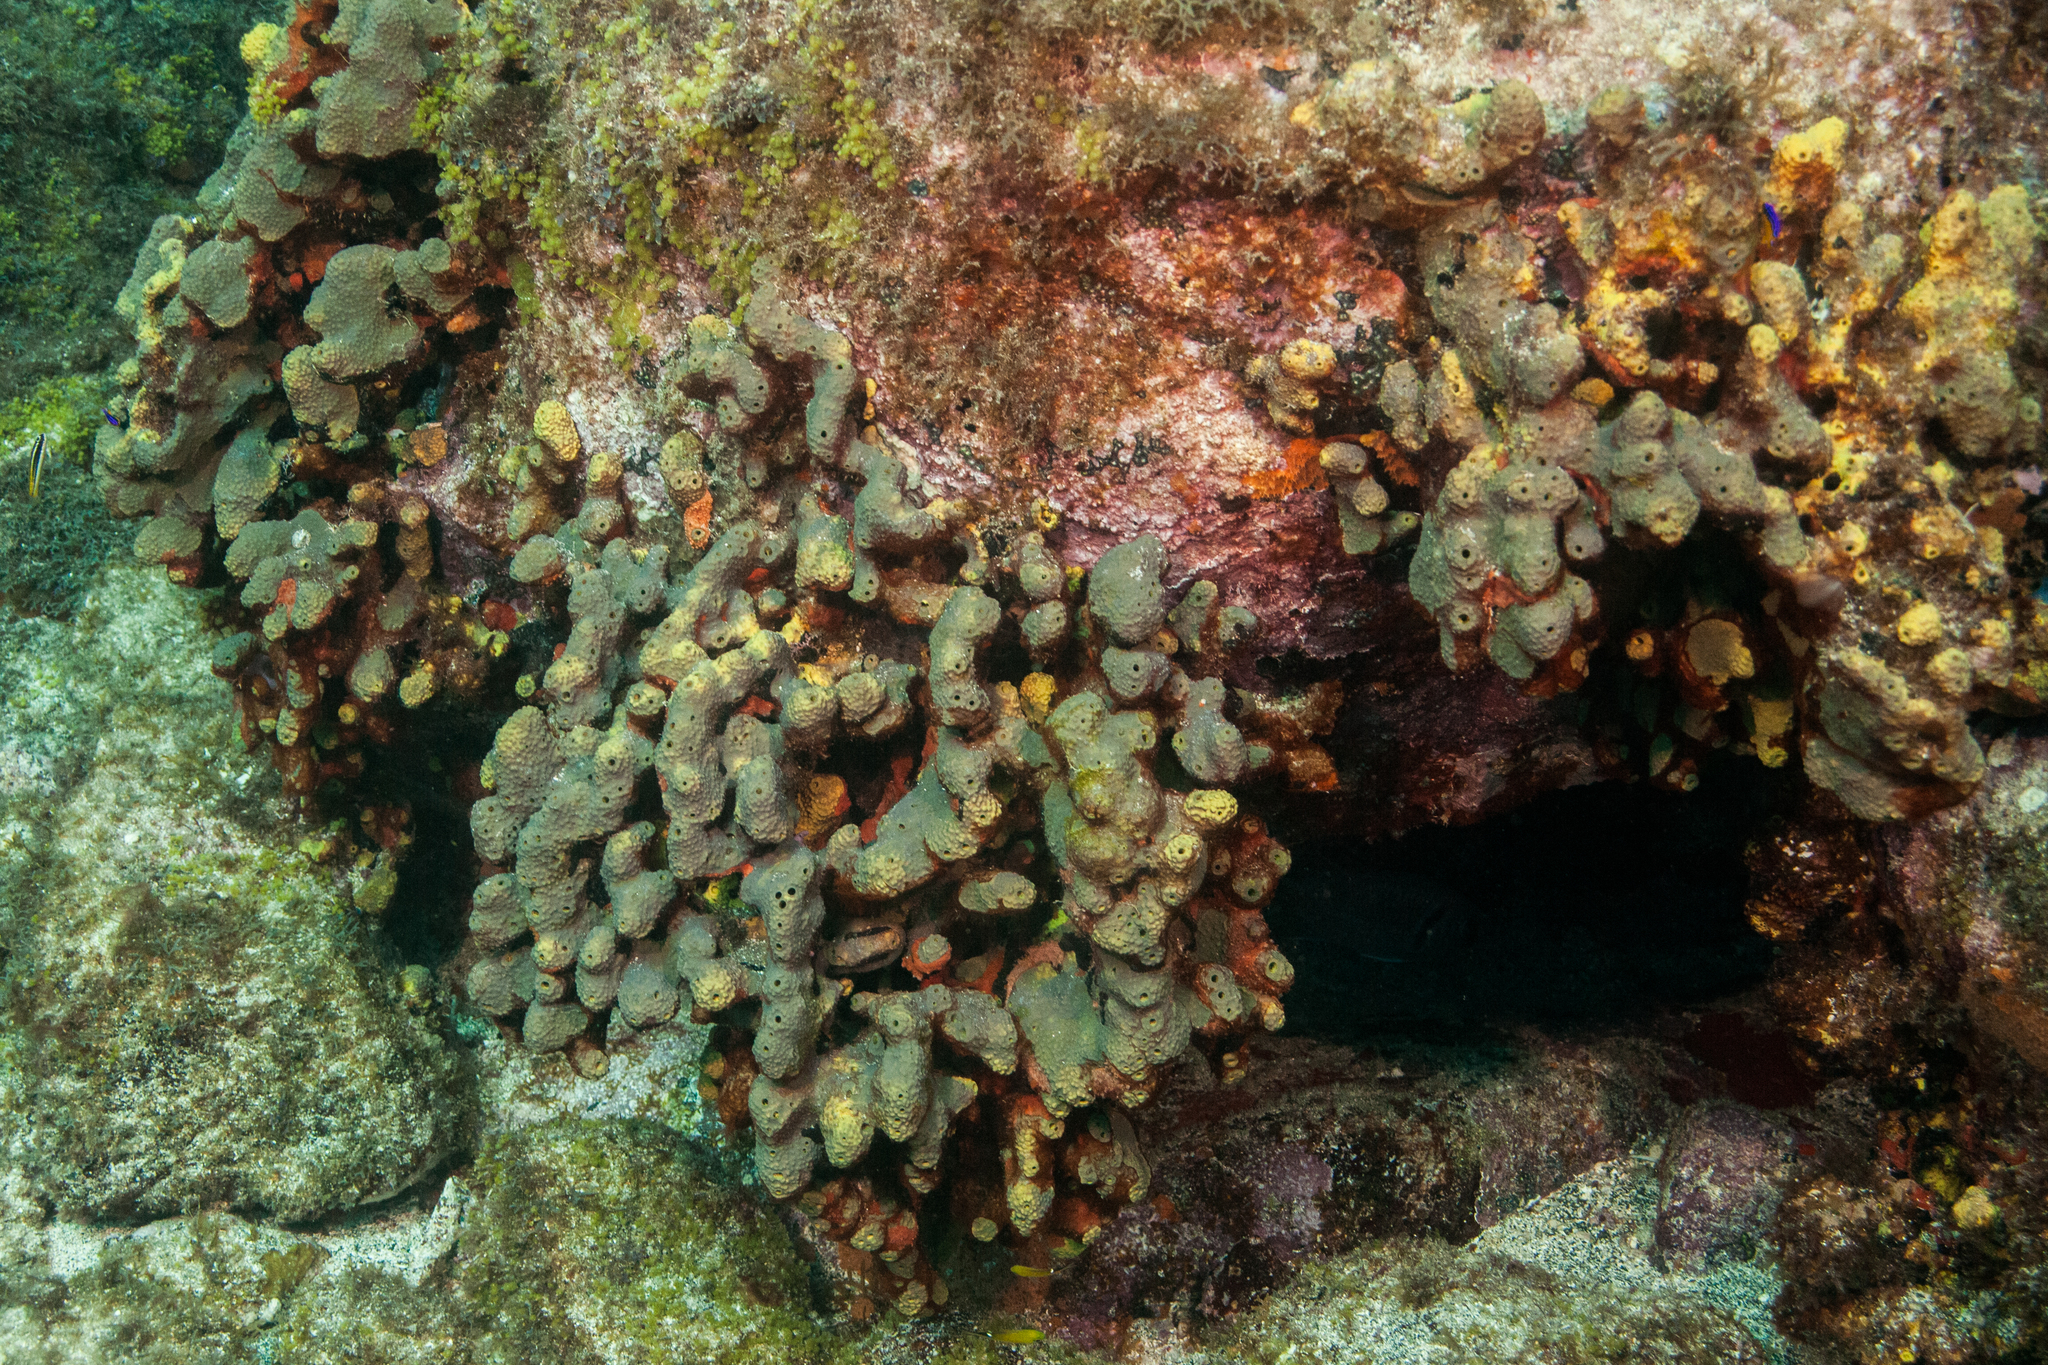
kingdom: Animalia
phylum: Porifera
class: Demospongiae
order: Verongiida
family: Aplysinidae
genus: Aiolochroia
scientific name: Aiolochroia crassa
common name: Branching tube sponge
